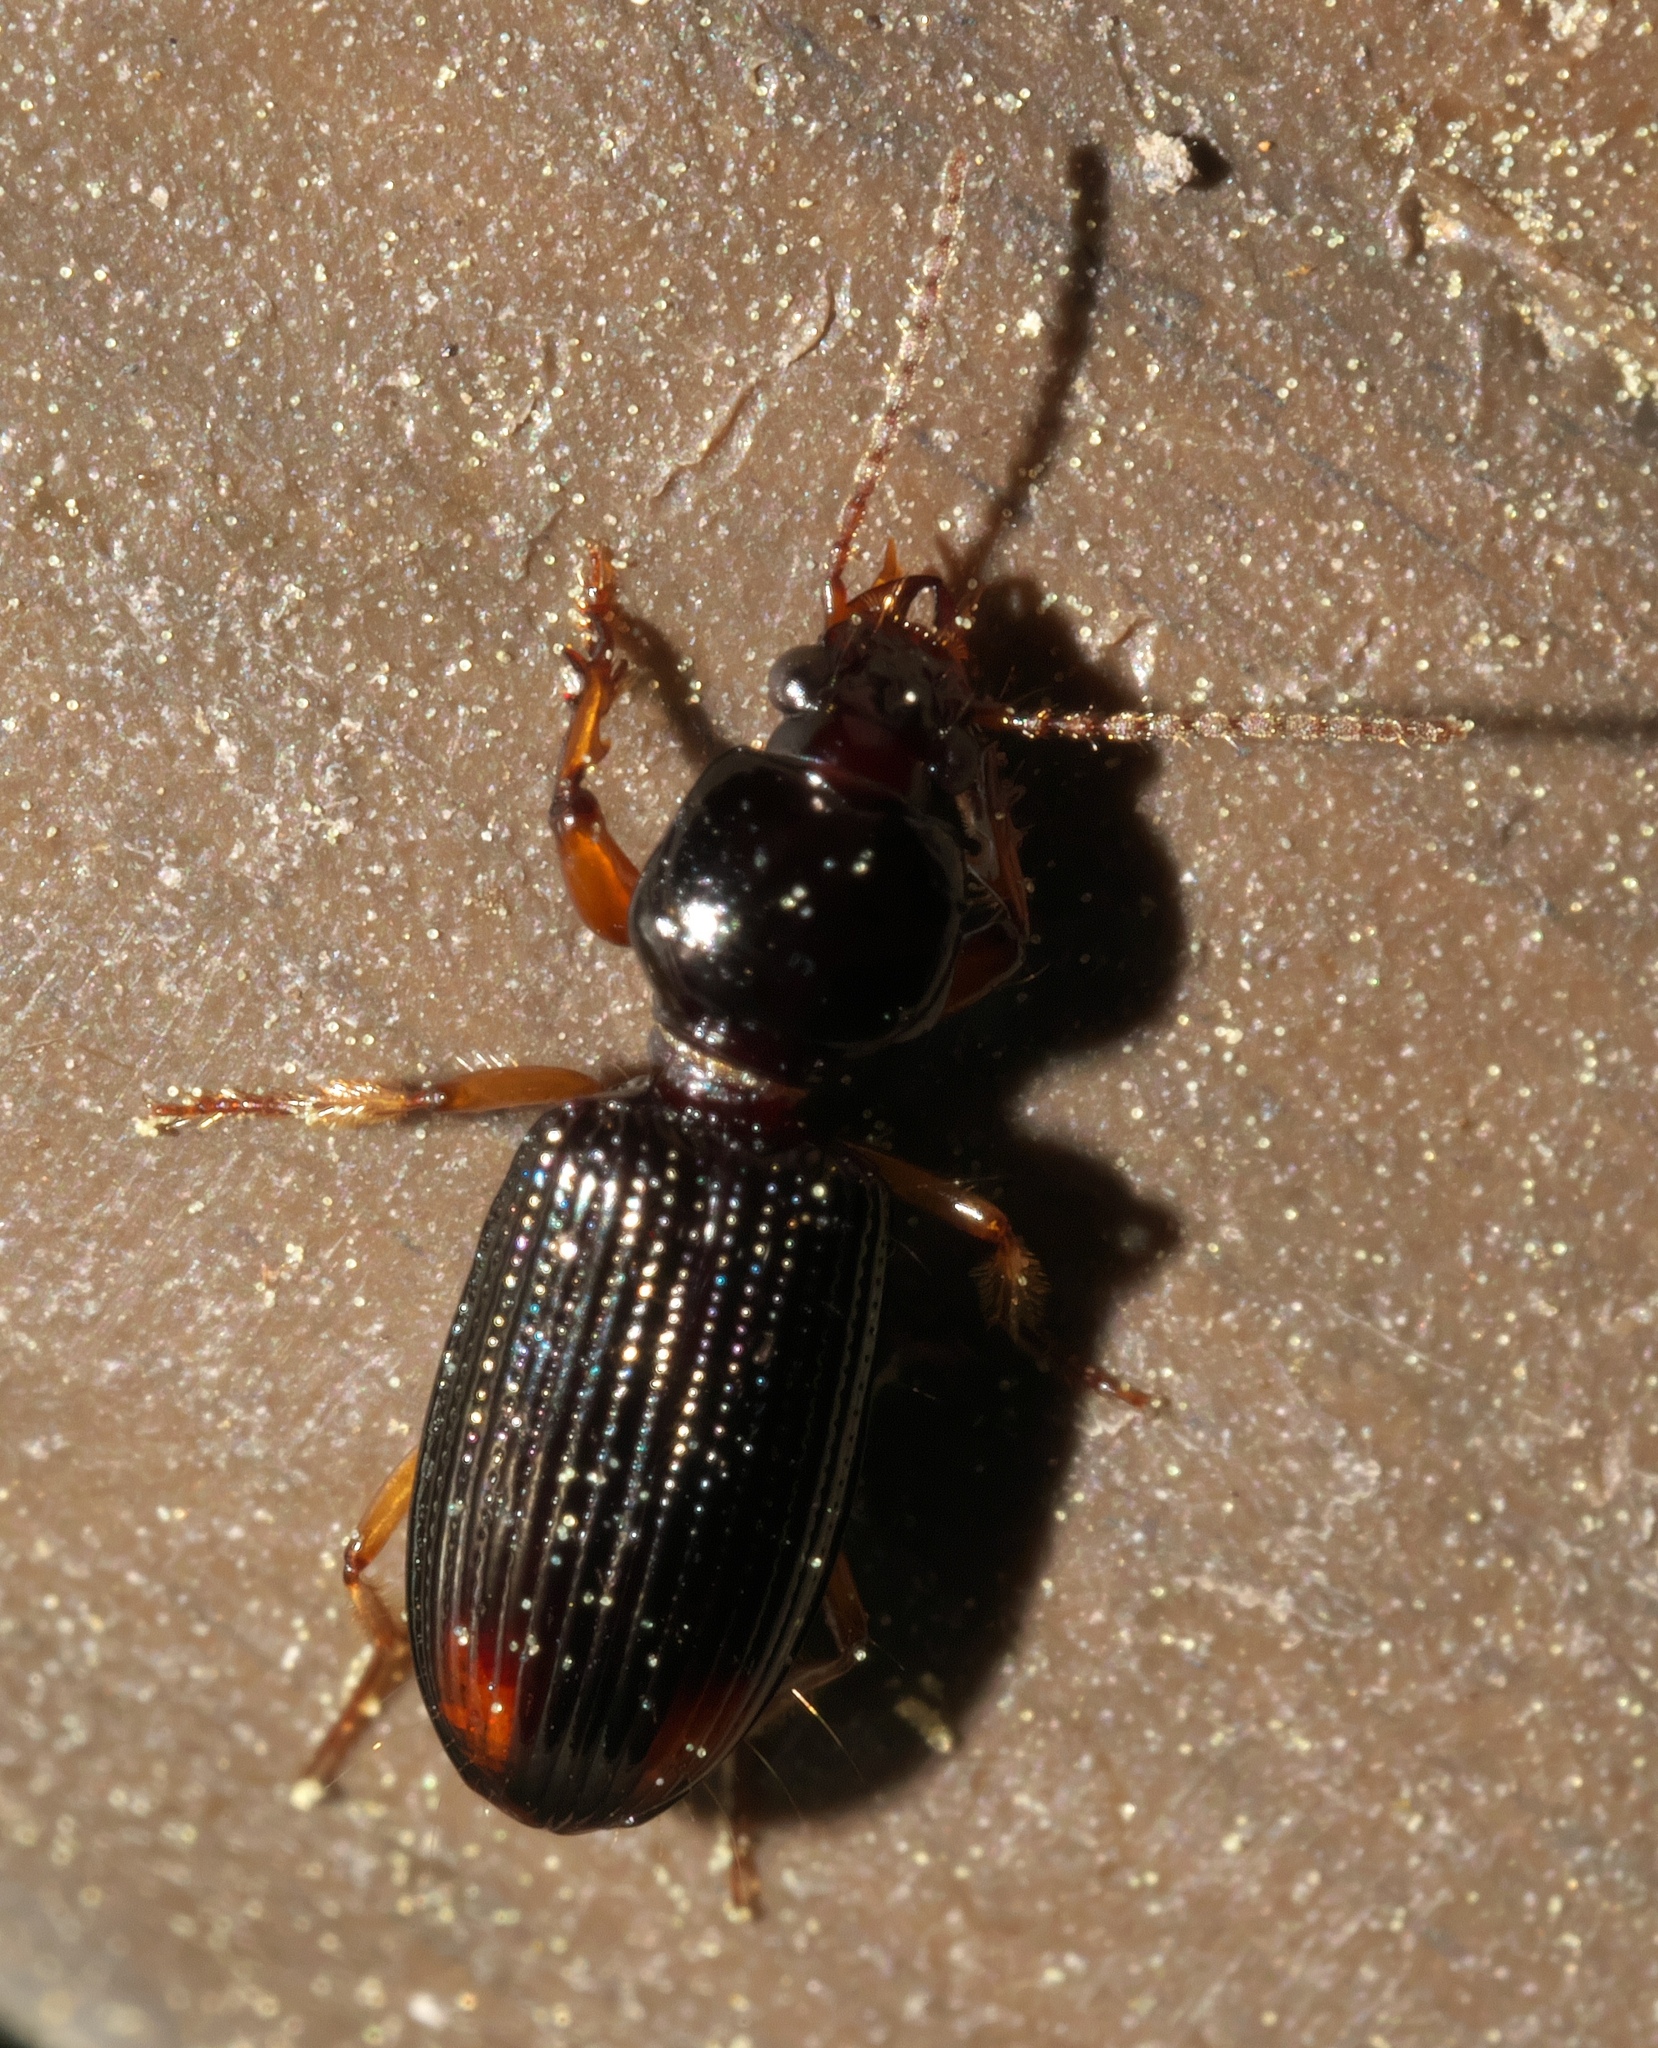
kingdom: Animalia
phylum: Arthropoda
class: Insecta
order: Coleoptera
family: Carabidae
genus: Aspidoglossa
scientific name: Aspidoglossa subangulata
